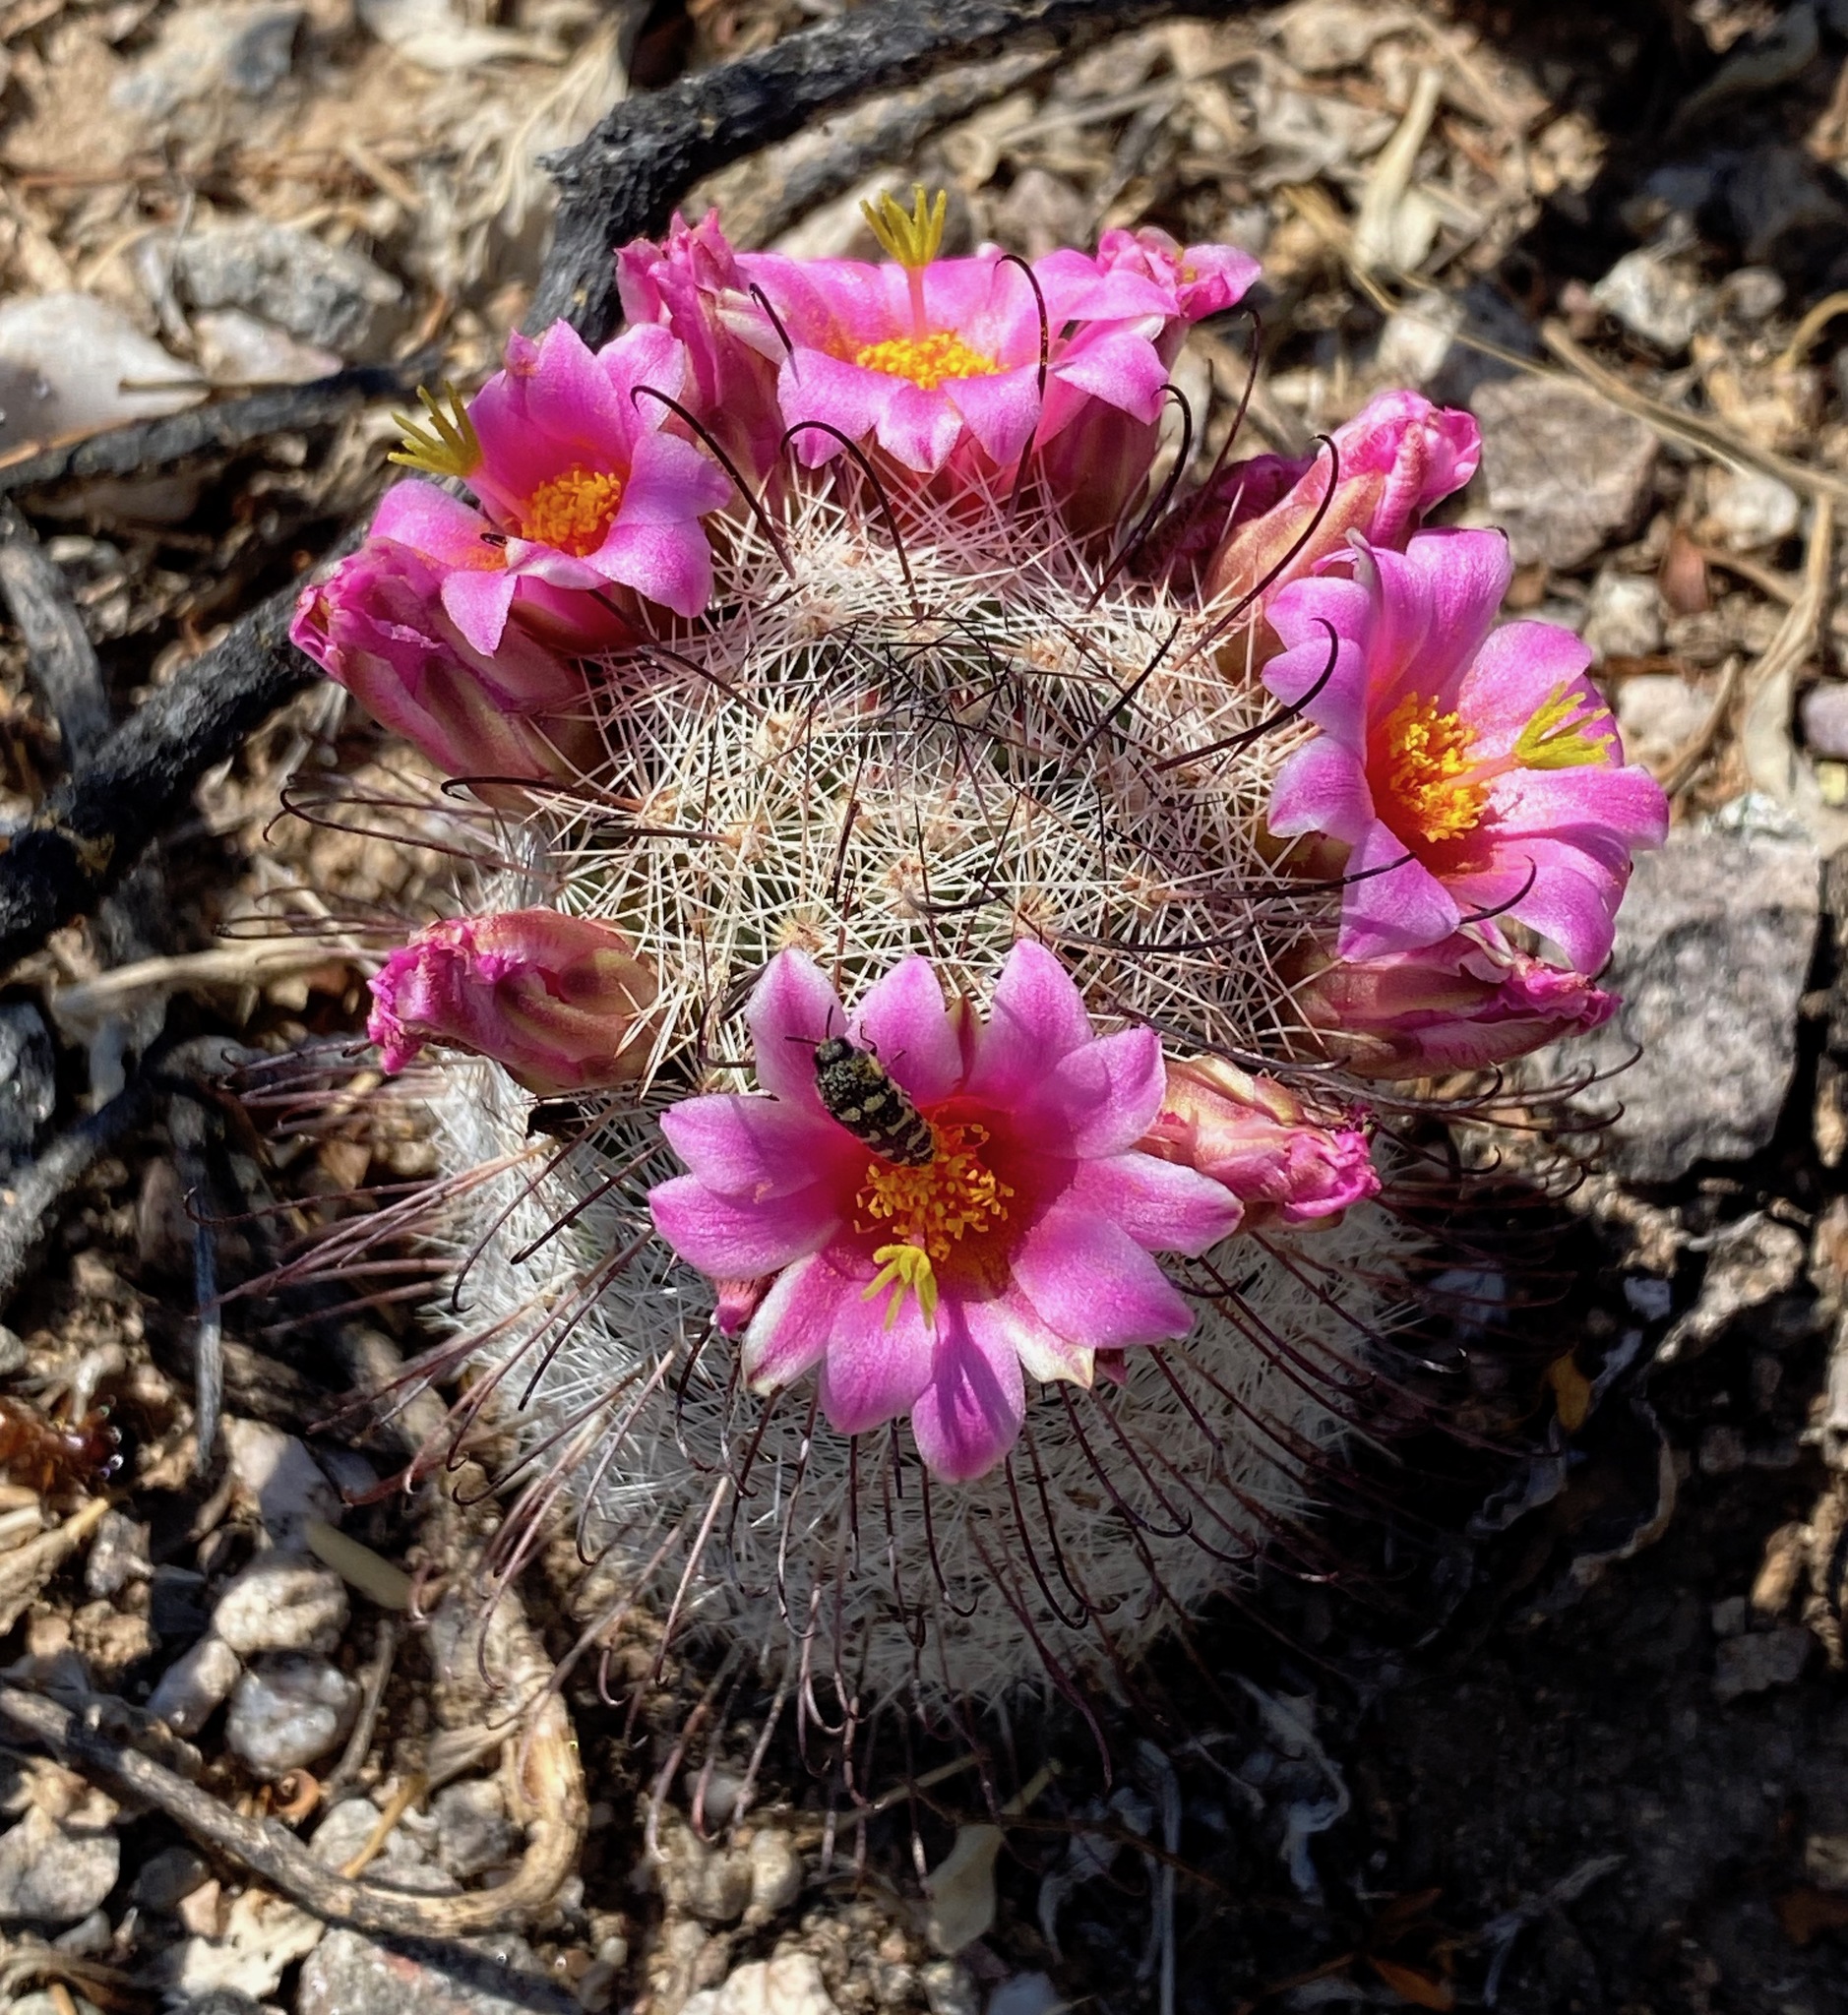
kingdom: Plantae
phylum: Tracheophyta
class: Magnoliopsida
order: Caryophyllales
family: Cactaceae
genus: Cochemiea
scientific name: Cochemiea grahamii
